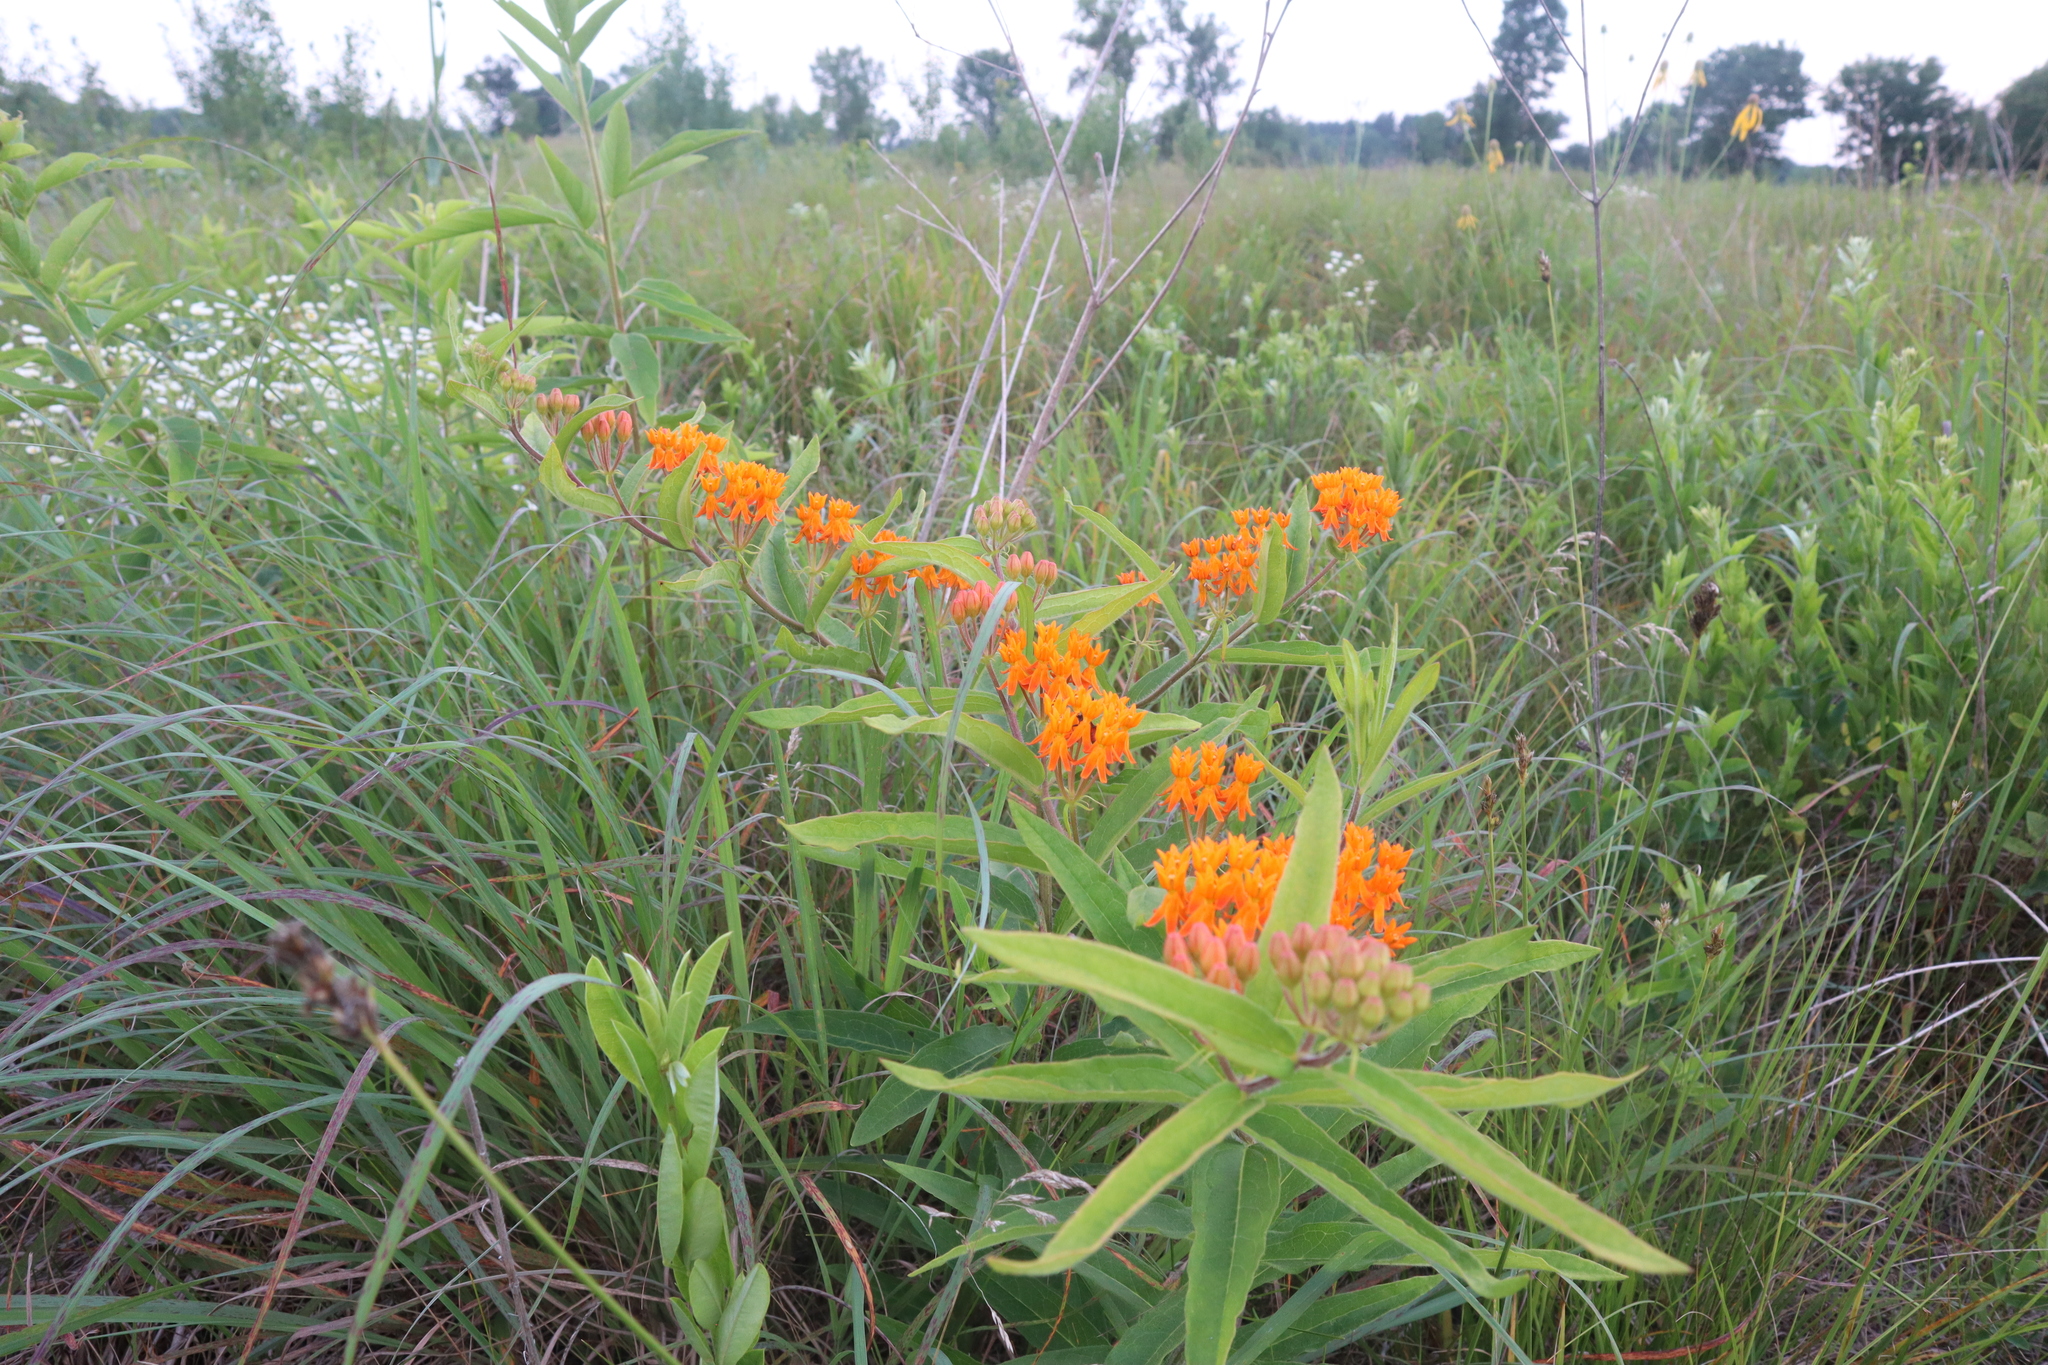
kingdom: Plantae
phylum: Tracheophyta
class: Magnoliopsida
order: Gentianales
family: Apocynaceae
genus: Asclepias
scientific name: Asclepias tuberosa
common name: Butterfly milkweed
